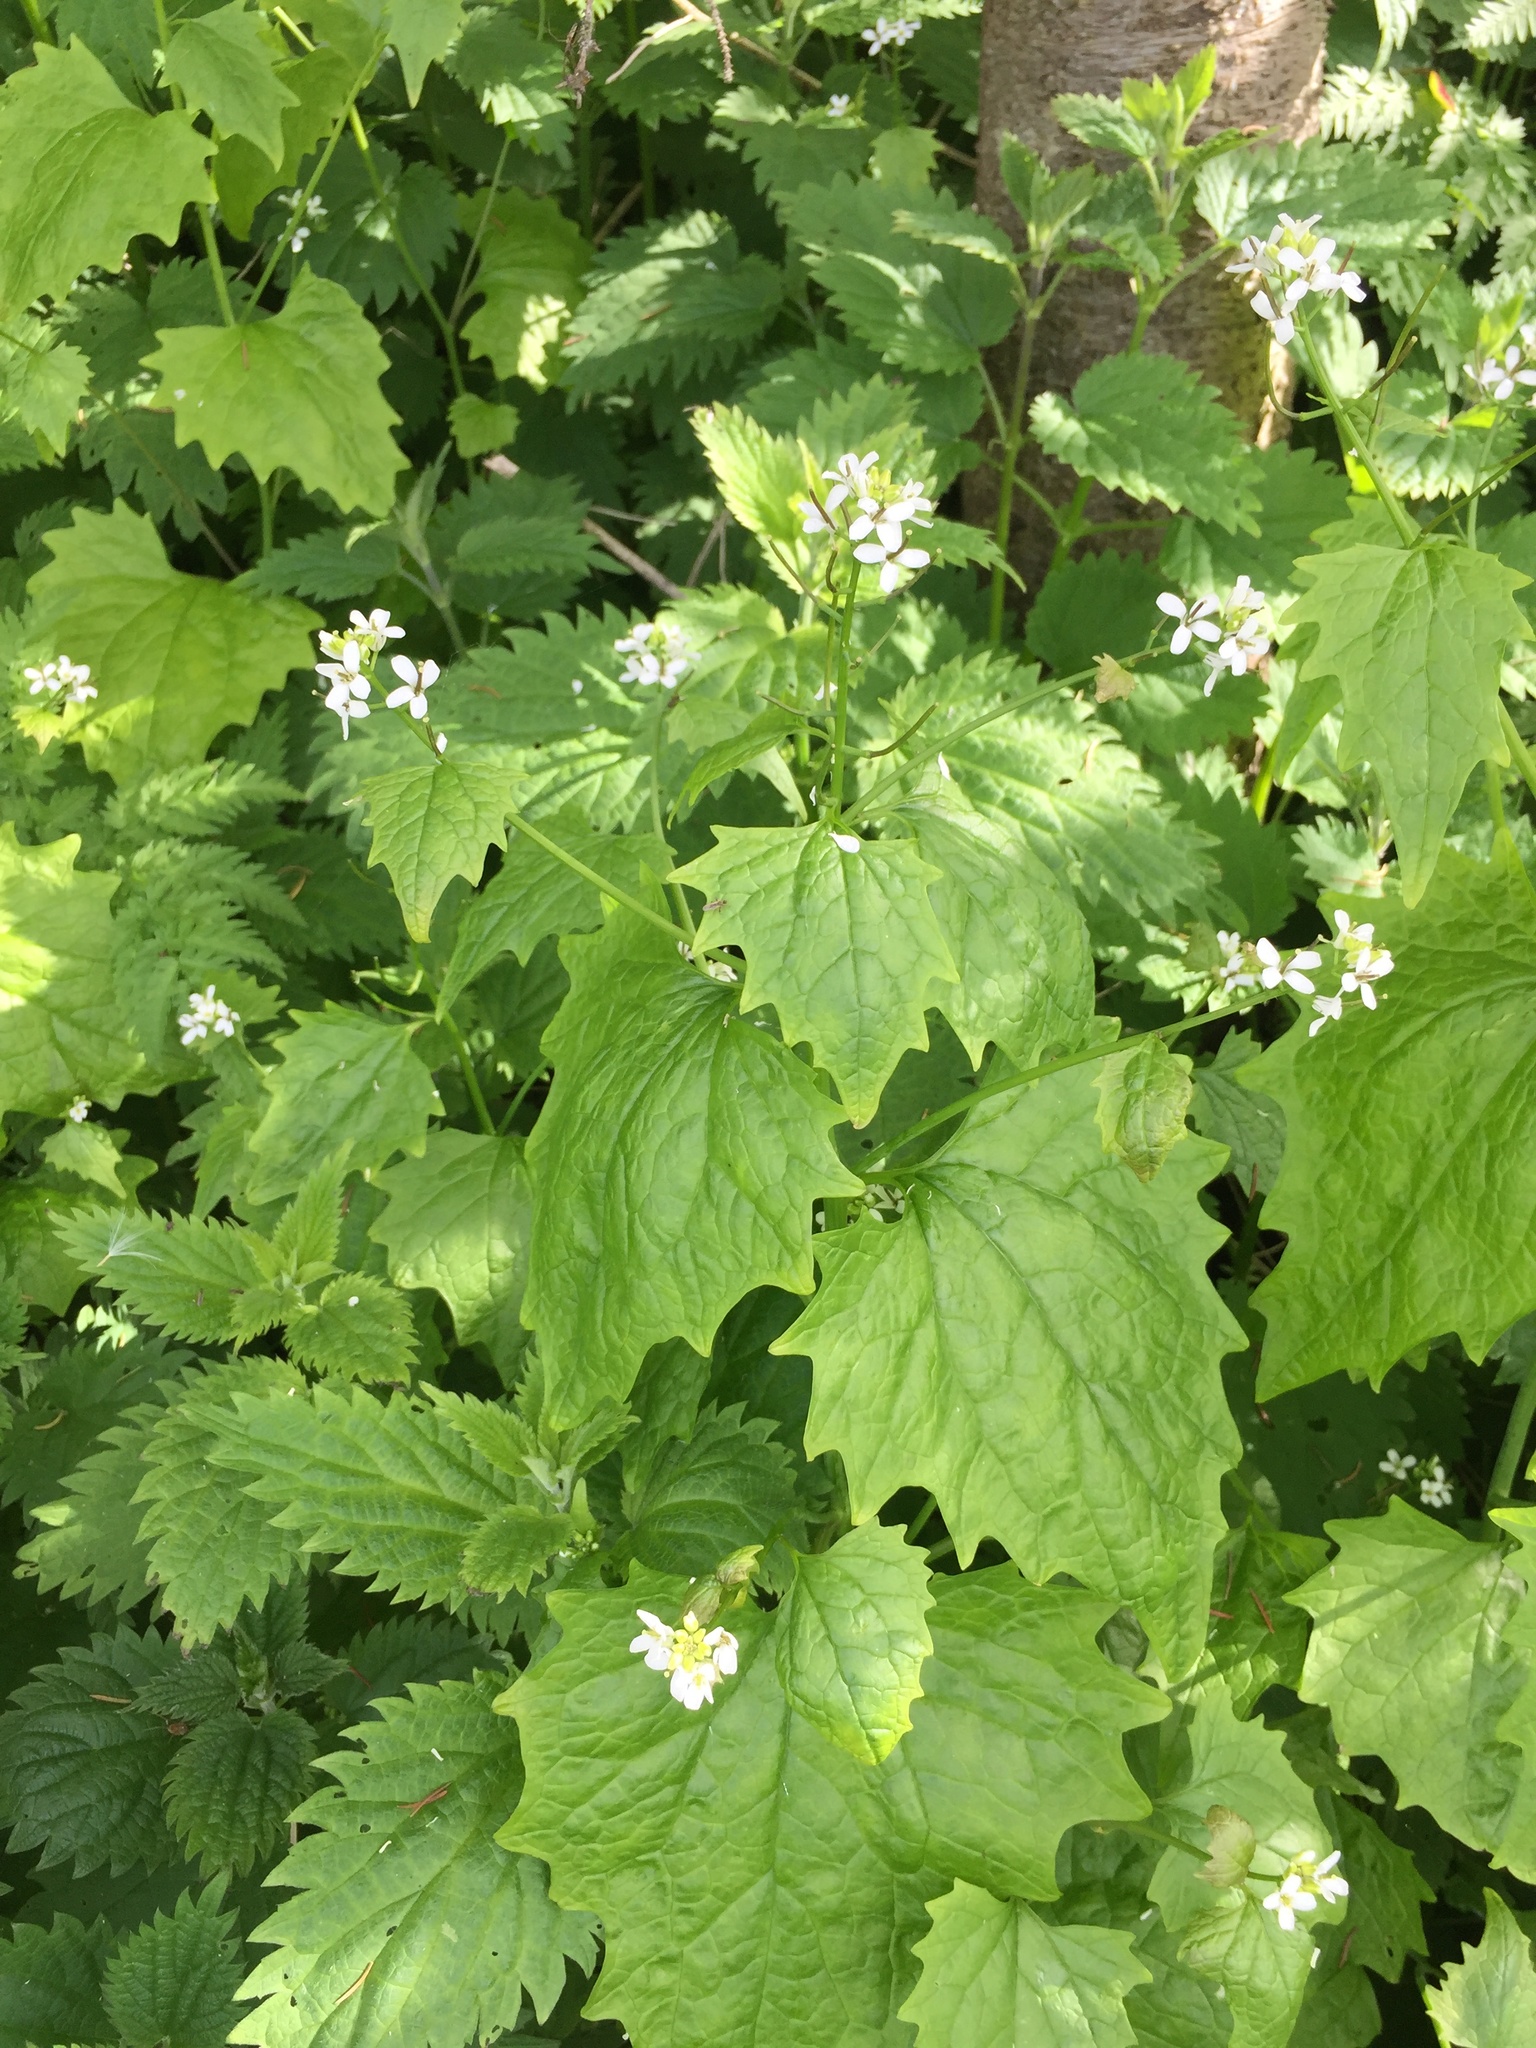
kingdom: Plantae
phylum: Tracheophyta
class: Magnoliopsida
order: Brassicales
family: Brassicaceae
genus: Alliaria
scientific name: Alliaria petiolata
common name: Garlic mustard
